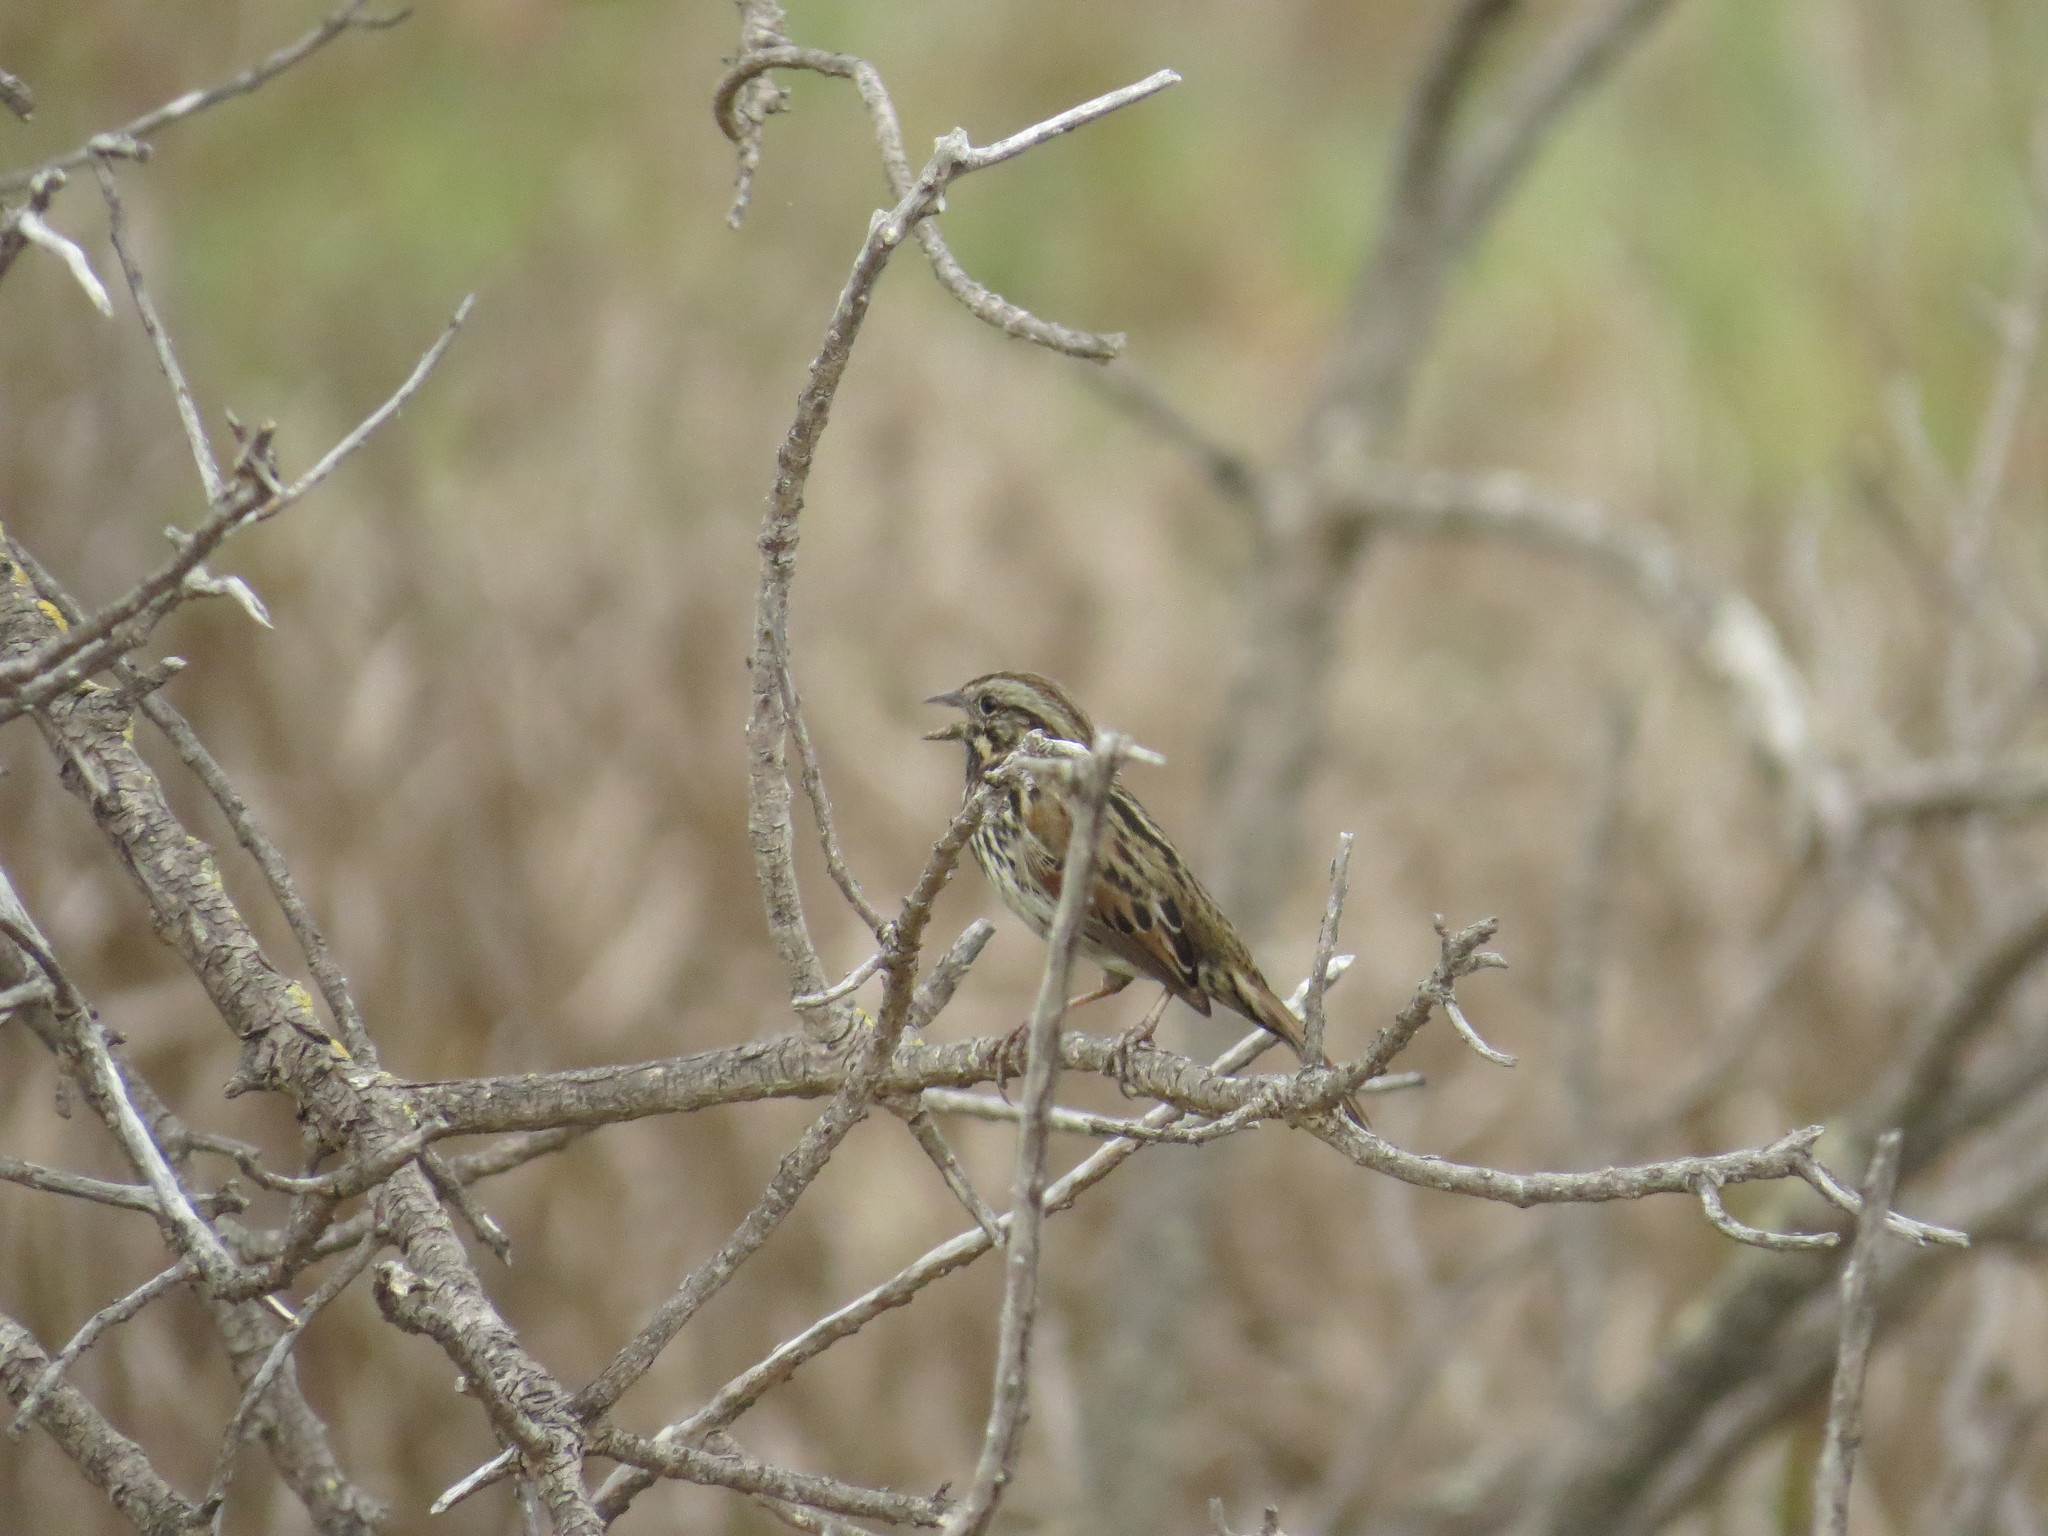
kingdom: Animalia
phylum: Chordata
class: Aves
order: Passeriformes
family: Passerellidae
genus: Melospiza
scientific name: Melospiza melodia
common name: Song sparrow
